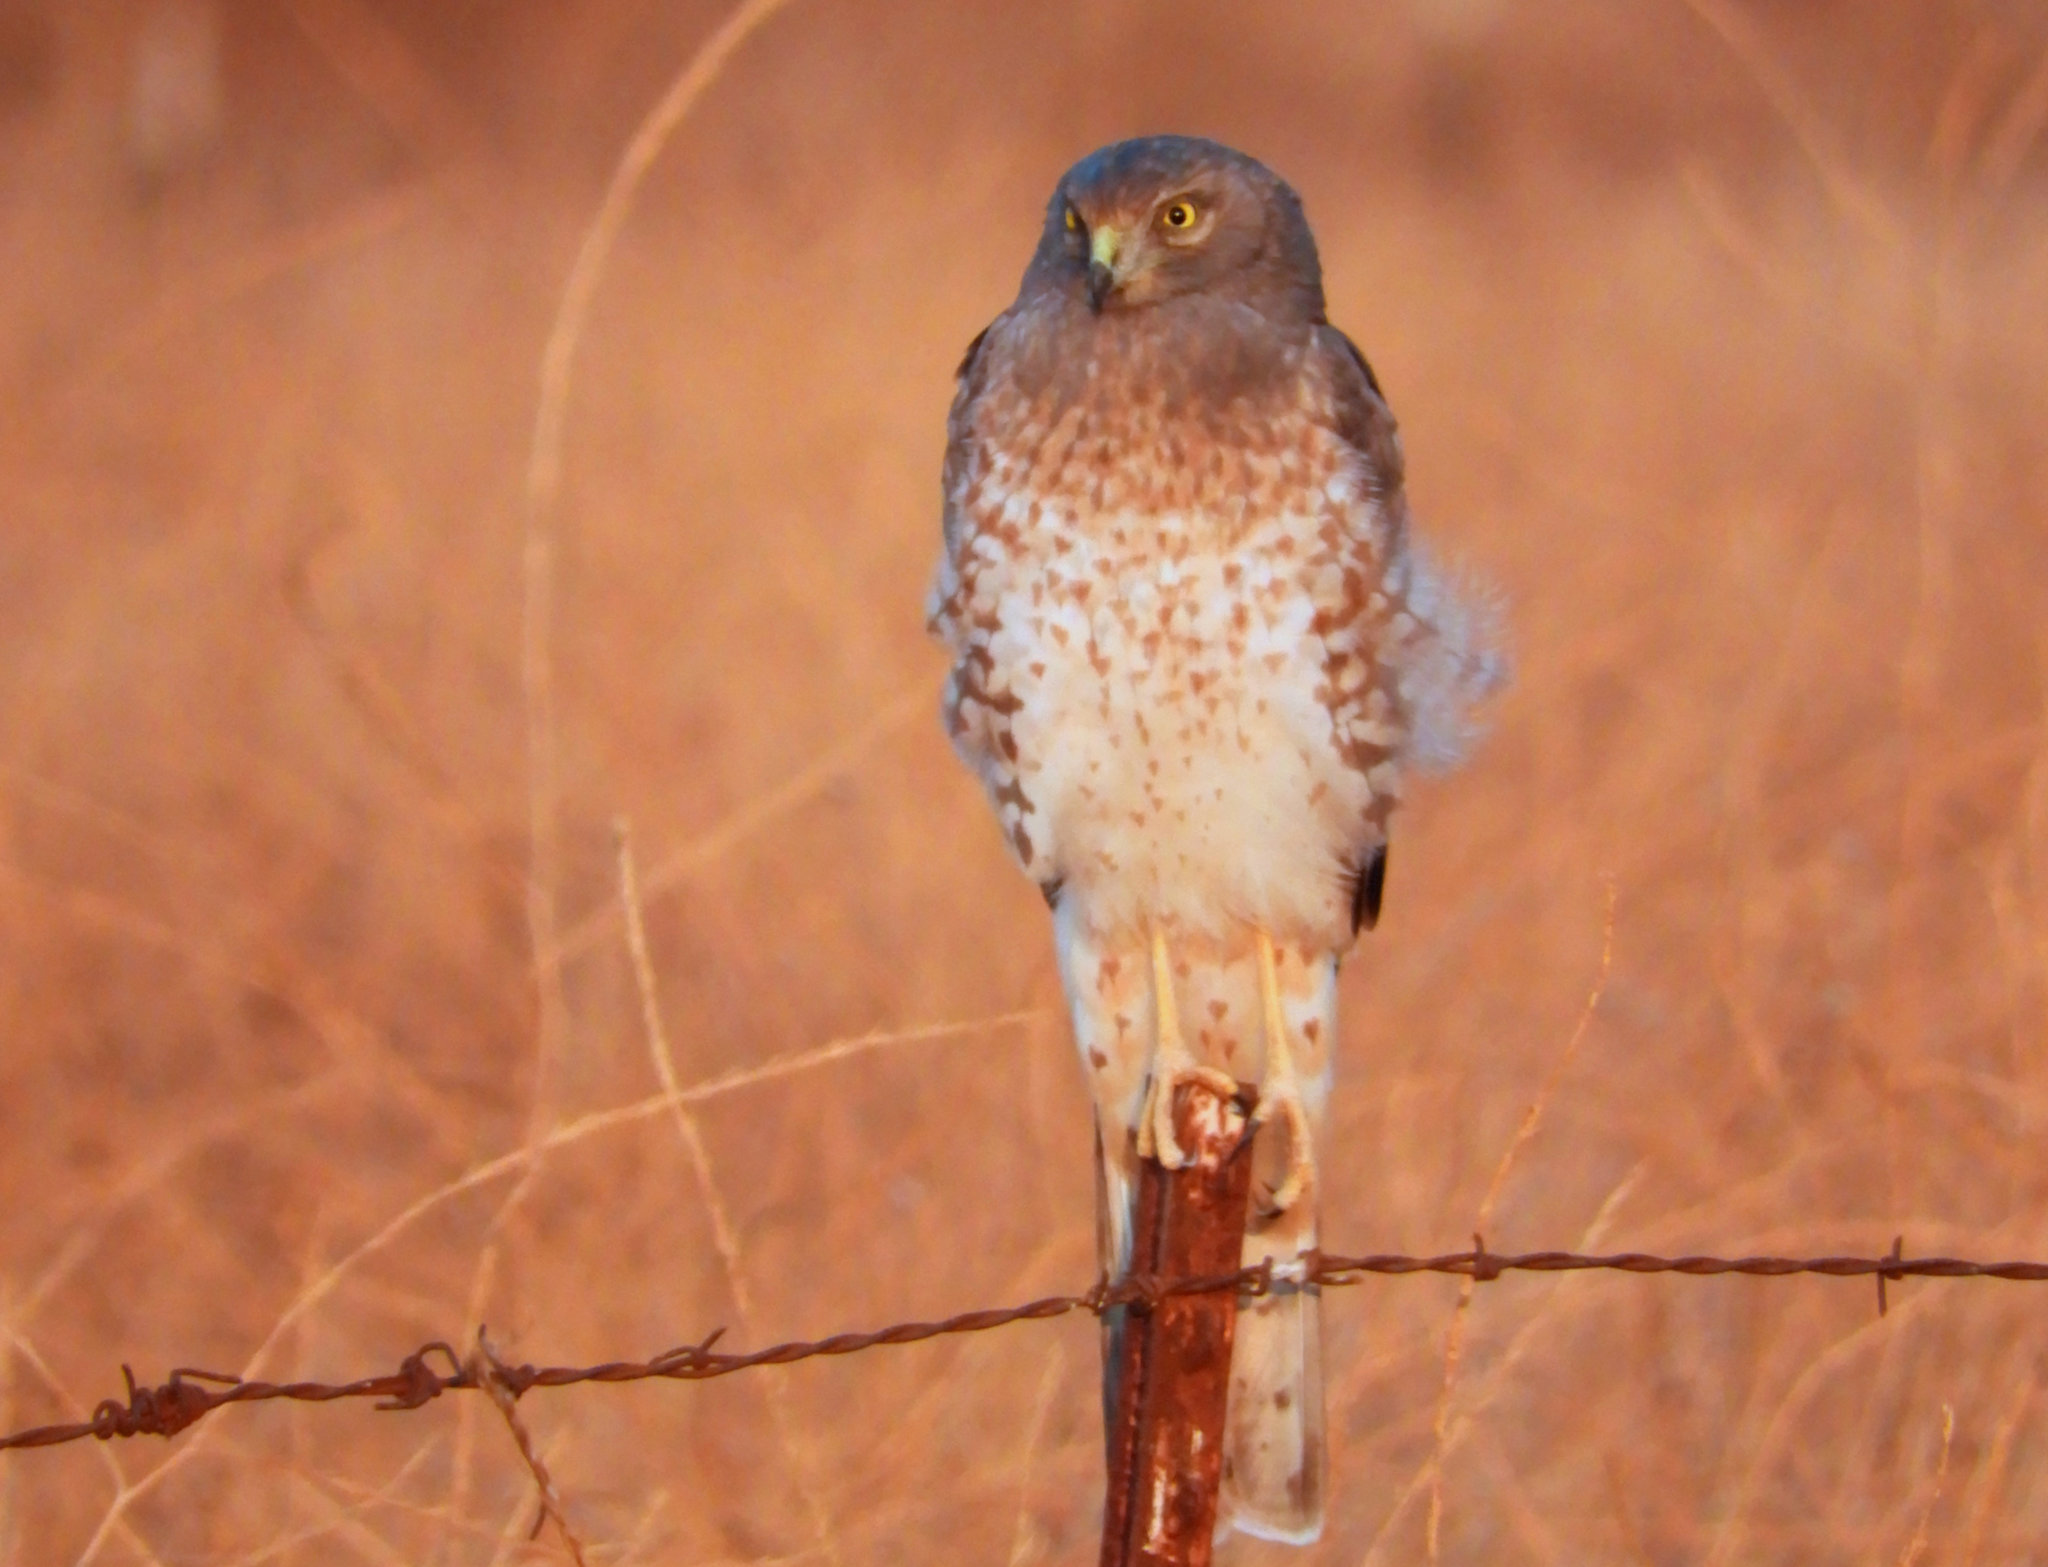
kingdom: Animalia
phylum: Chordata
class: Aves
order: Accipitriformes
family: Accipitridae
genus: Circus
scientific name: Circus cyaneus
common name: Hen harrier
